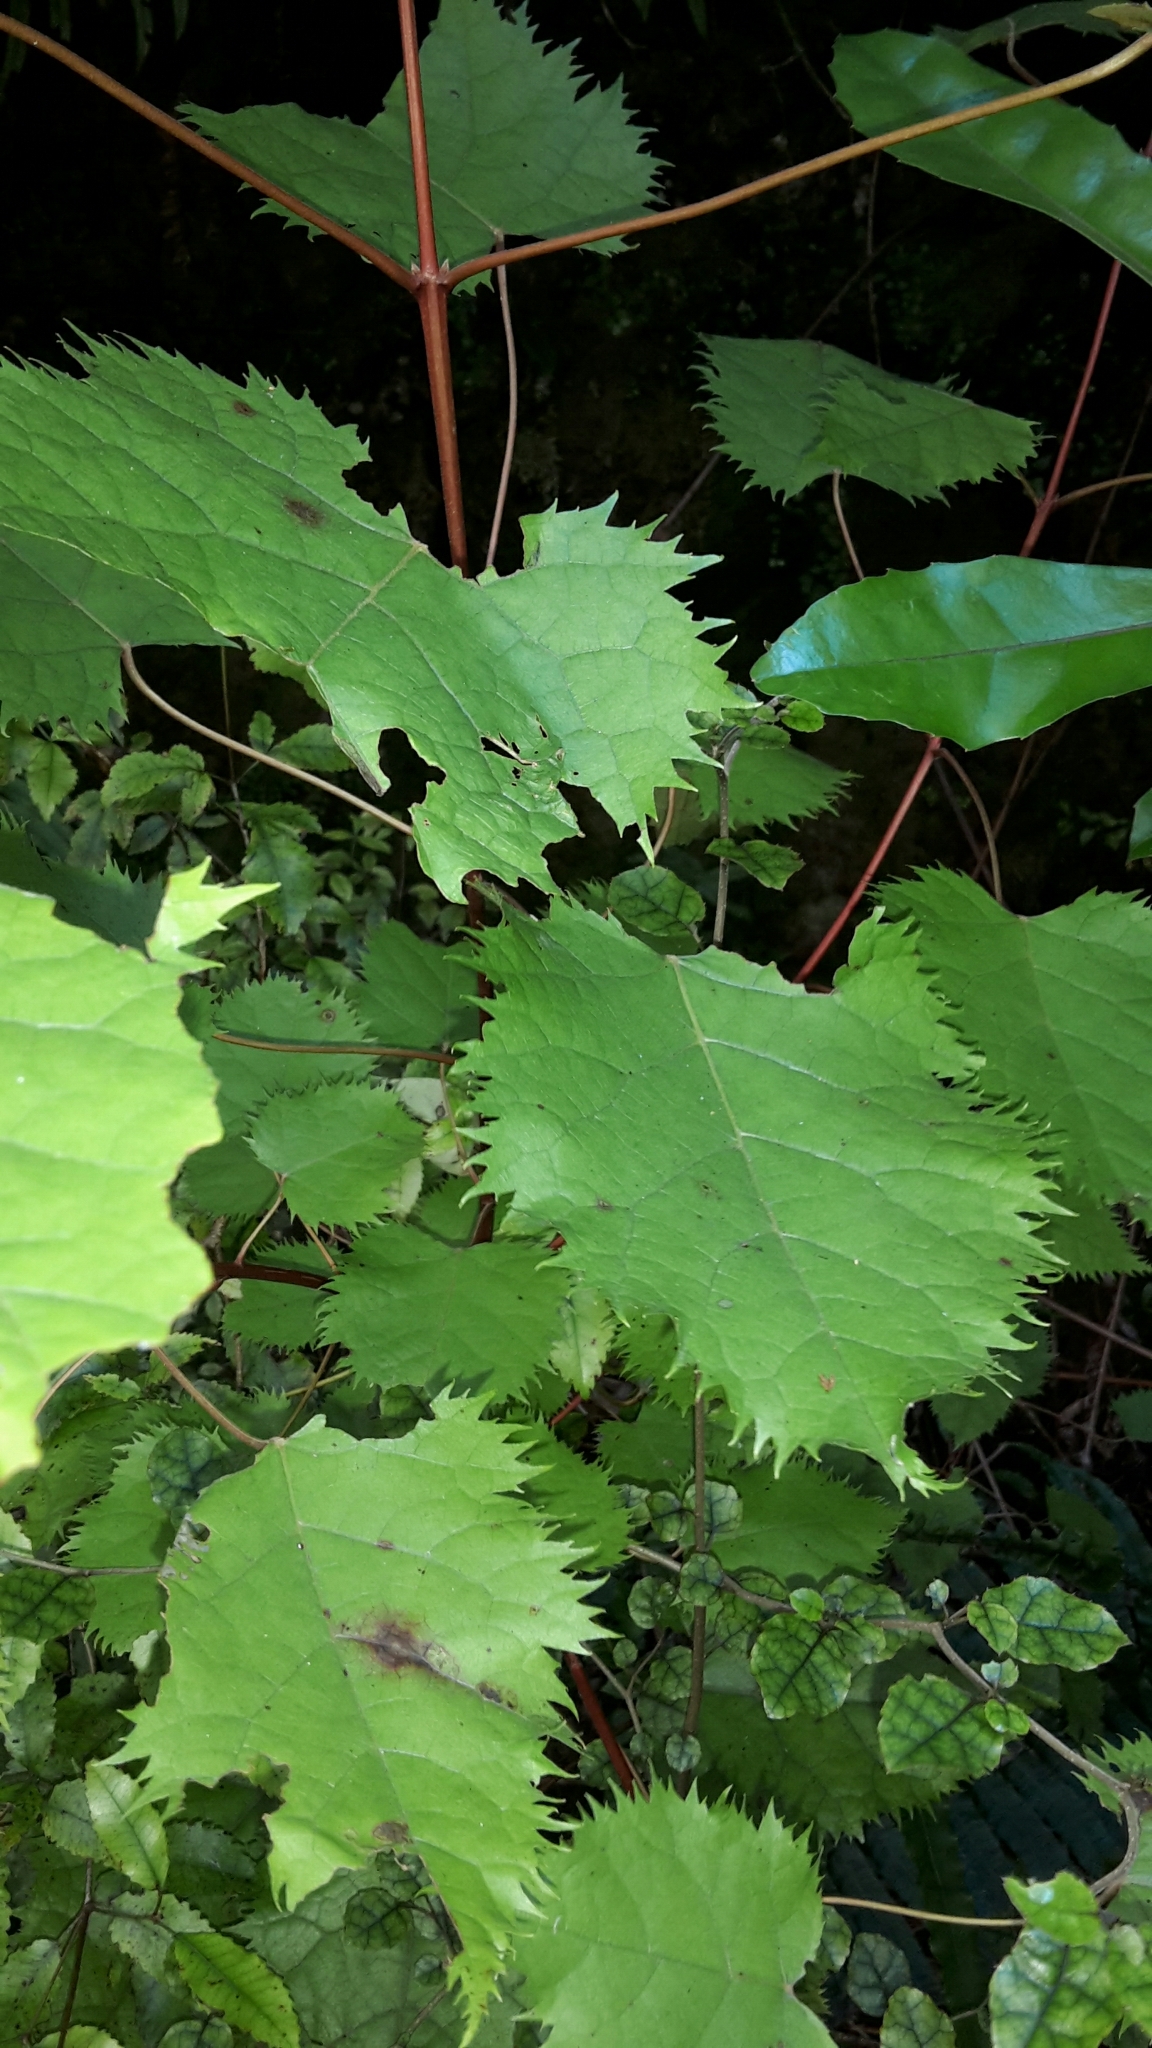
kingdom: Plantae
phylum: Tracheophyta
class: Magnoliopsida
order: Oxalidales
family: Elaeocarpaceae
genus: Aristotelia
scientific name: Aristotelia serrata
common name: New zealand wineberry
